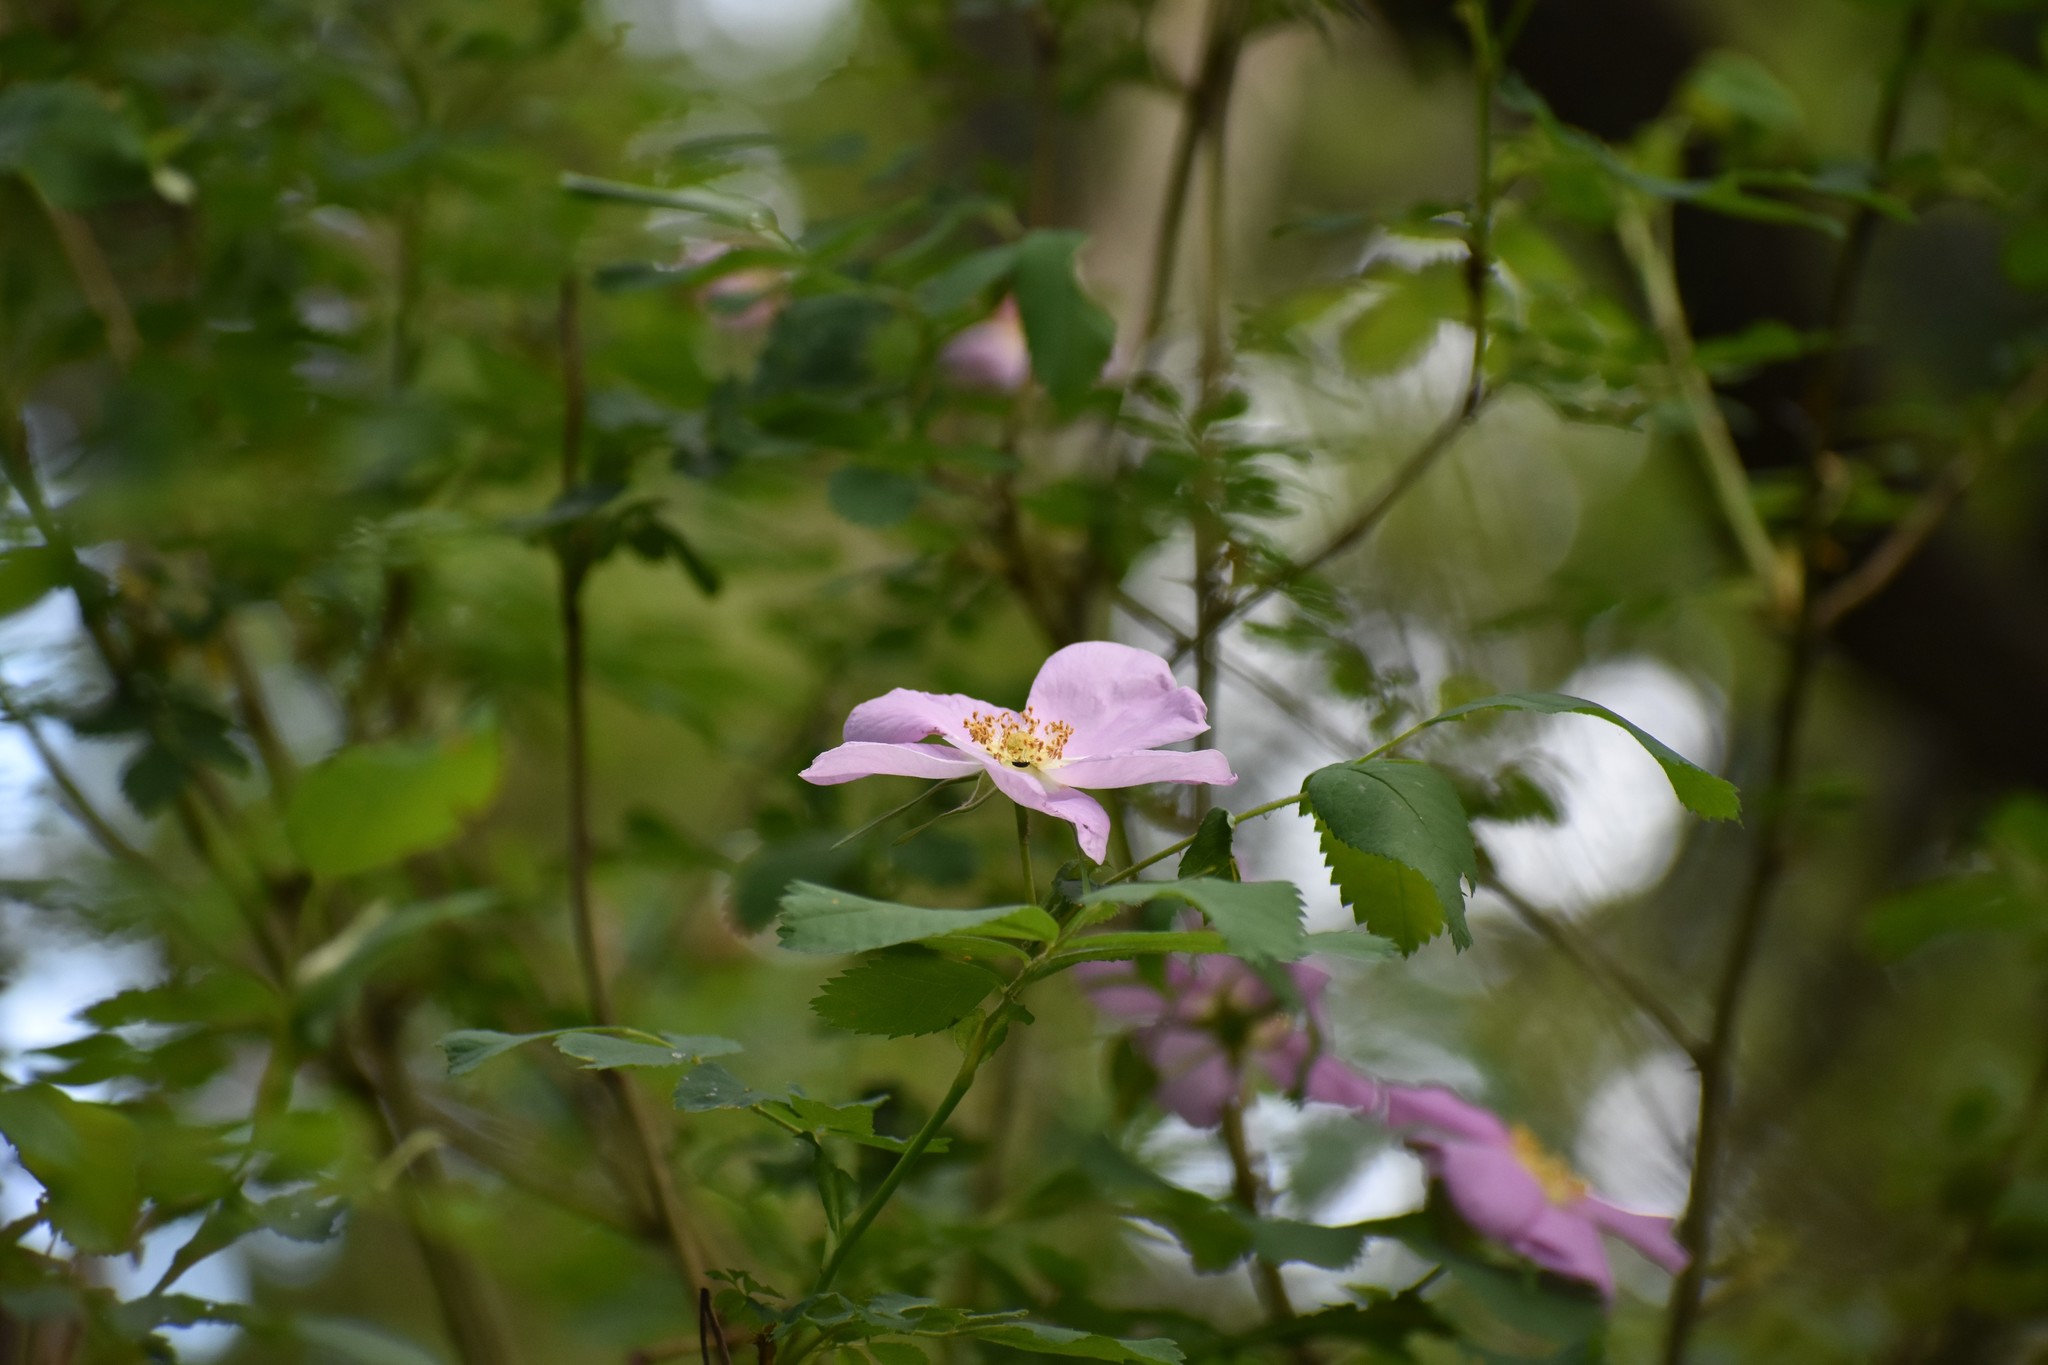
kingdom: Plantae
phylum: Tracheophyta
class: Magnoliopsida
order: Rosales
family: Rosaceae
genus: Rosa
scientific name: Rosa nutkana
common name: Nootka rose
